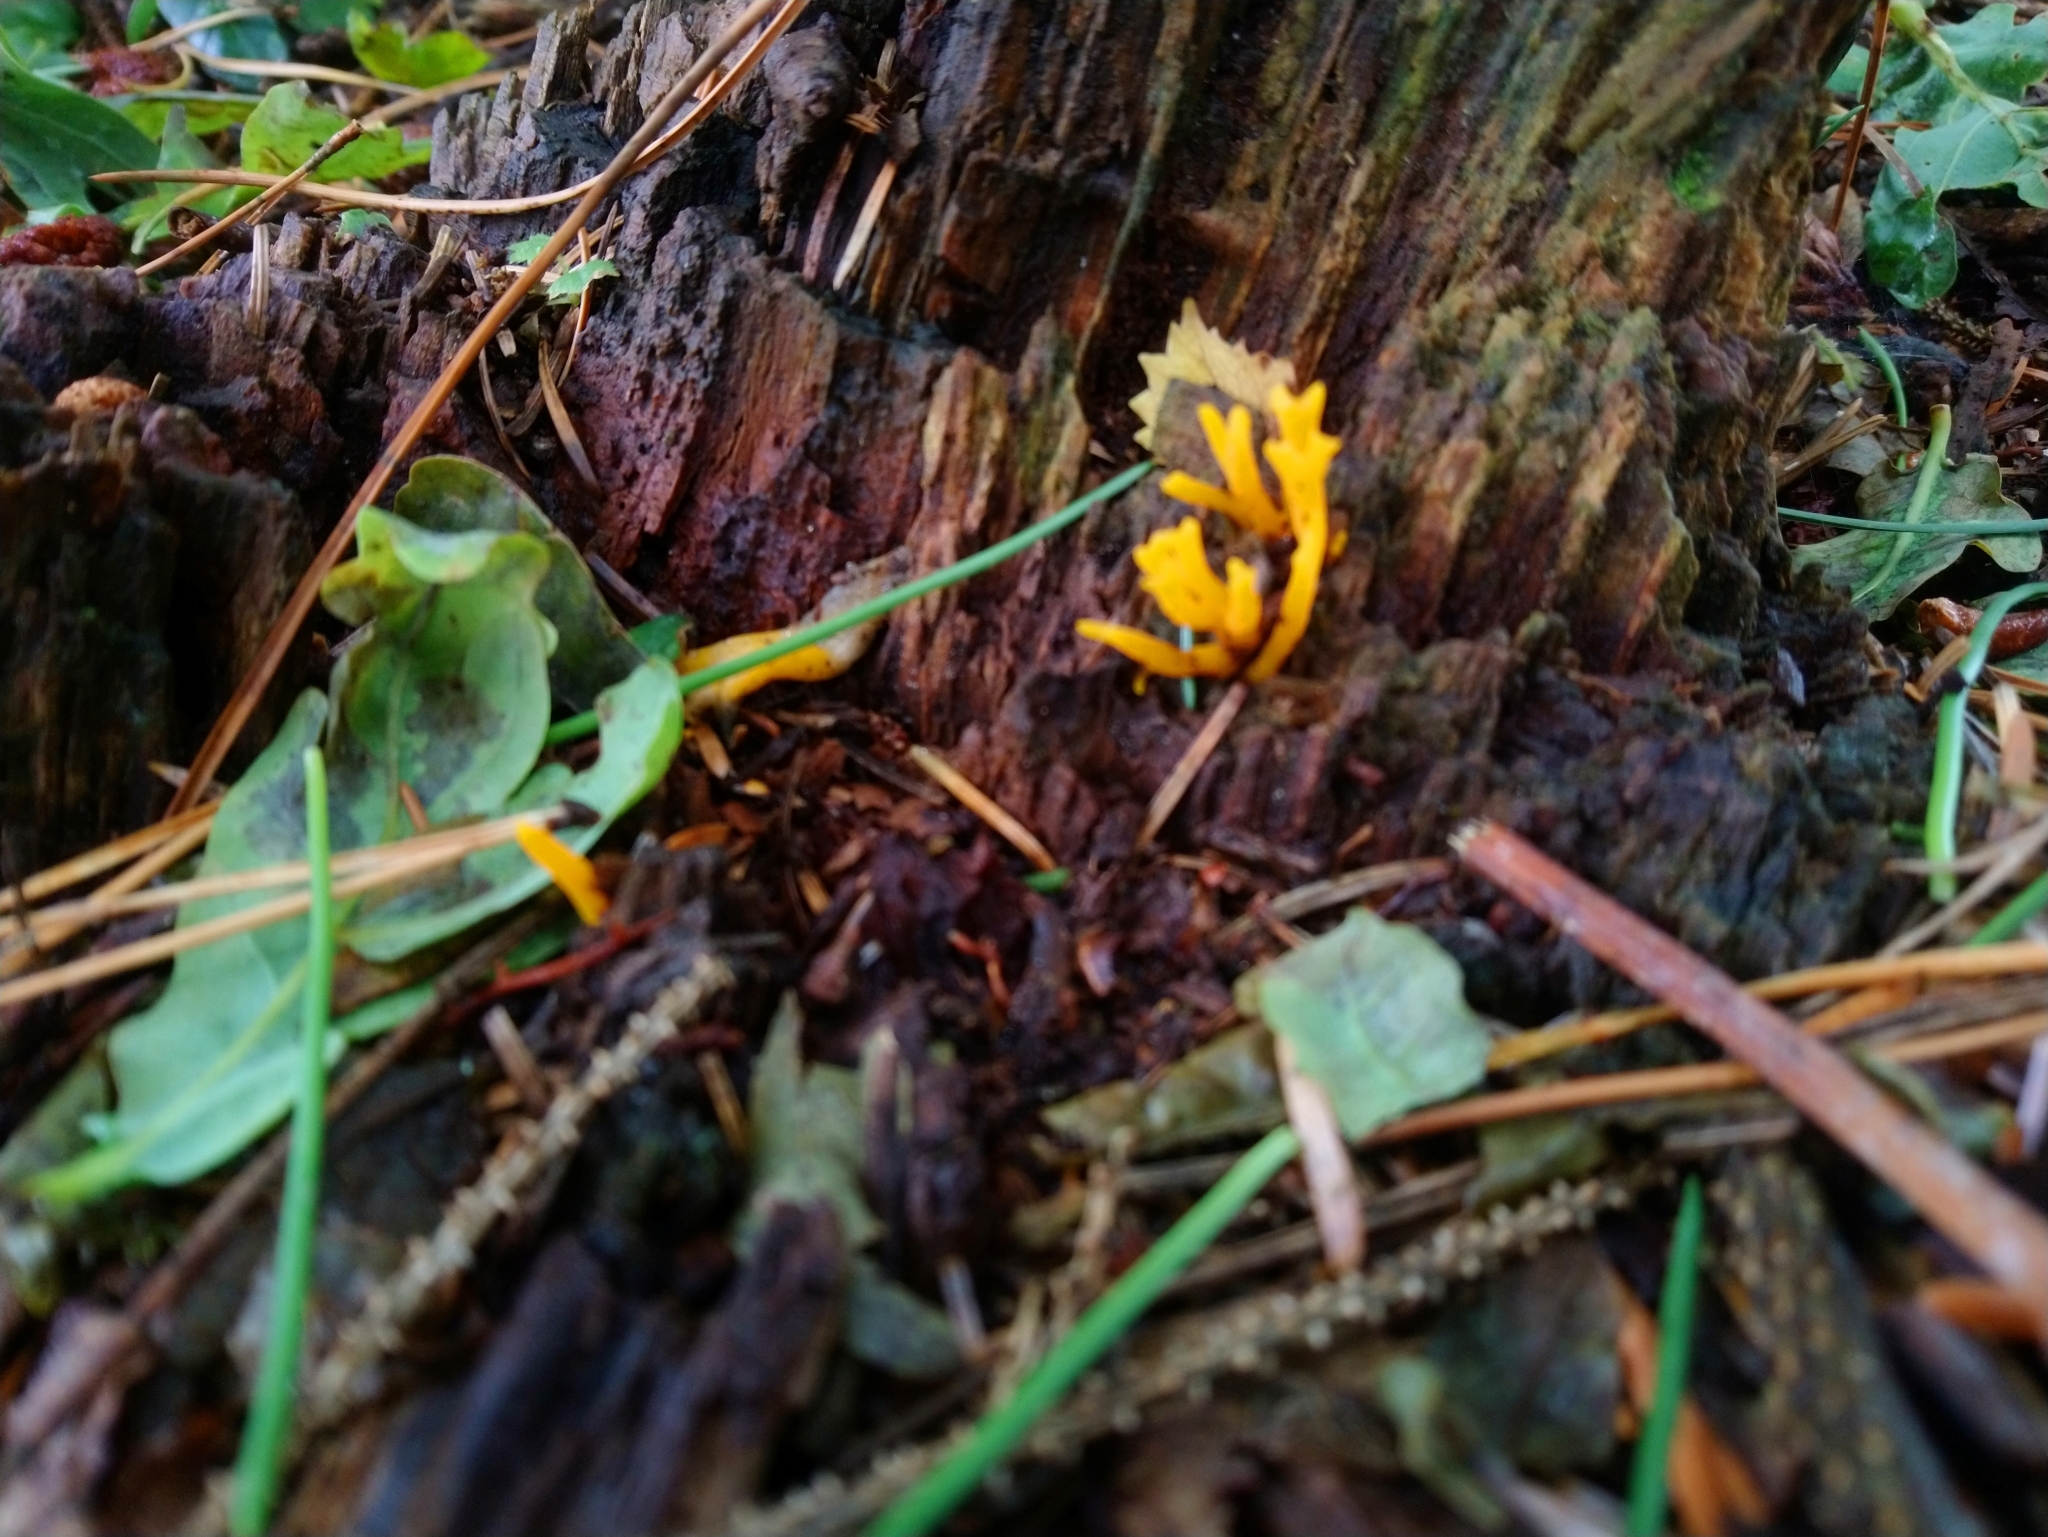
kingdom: Fungi
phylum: Basidiomycota
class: Dacrymycetes
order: Dacrymycetales
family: Dacrymycetaceae
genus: Calocera
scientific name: Calocera viscosa
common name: Yellow stagshorn
